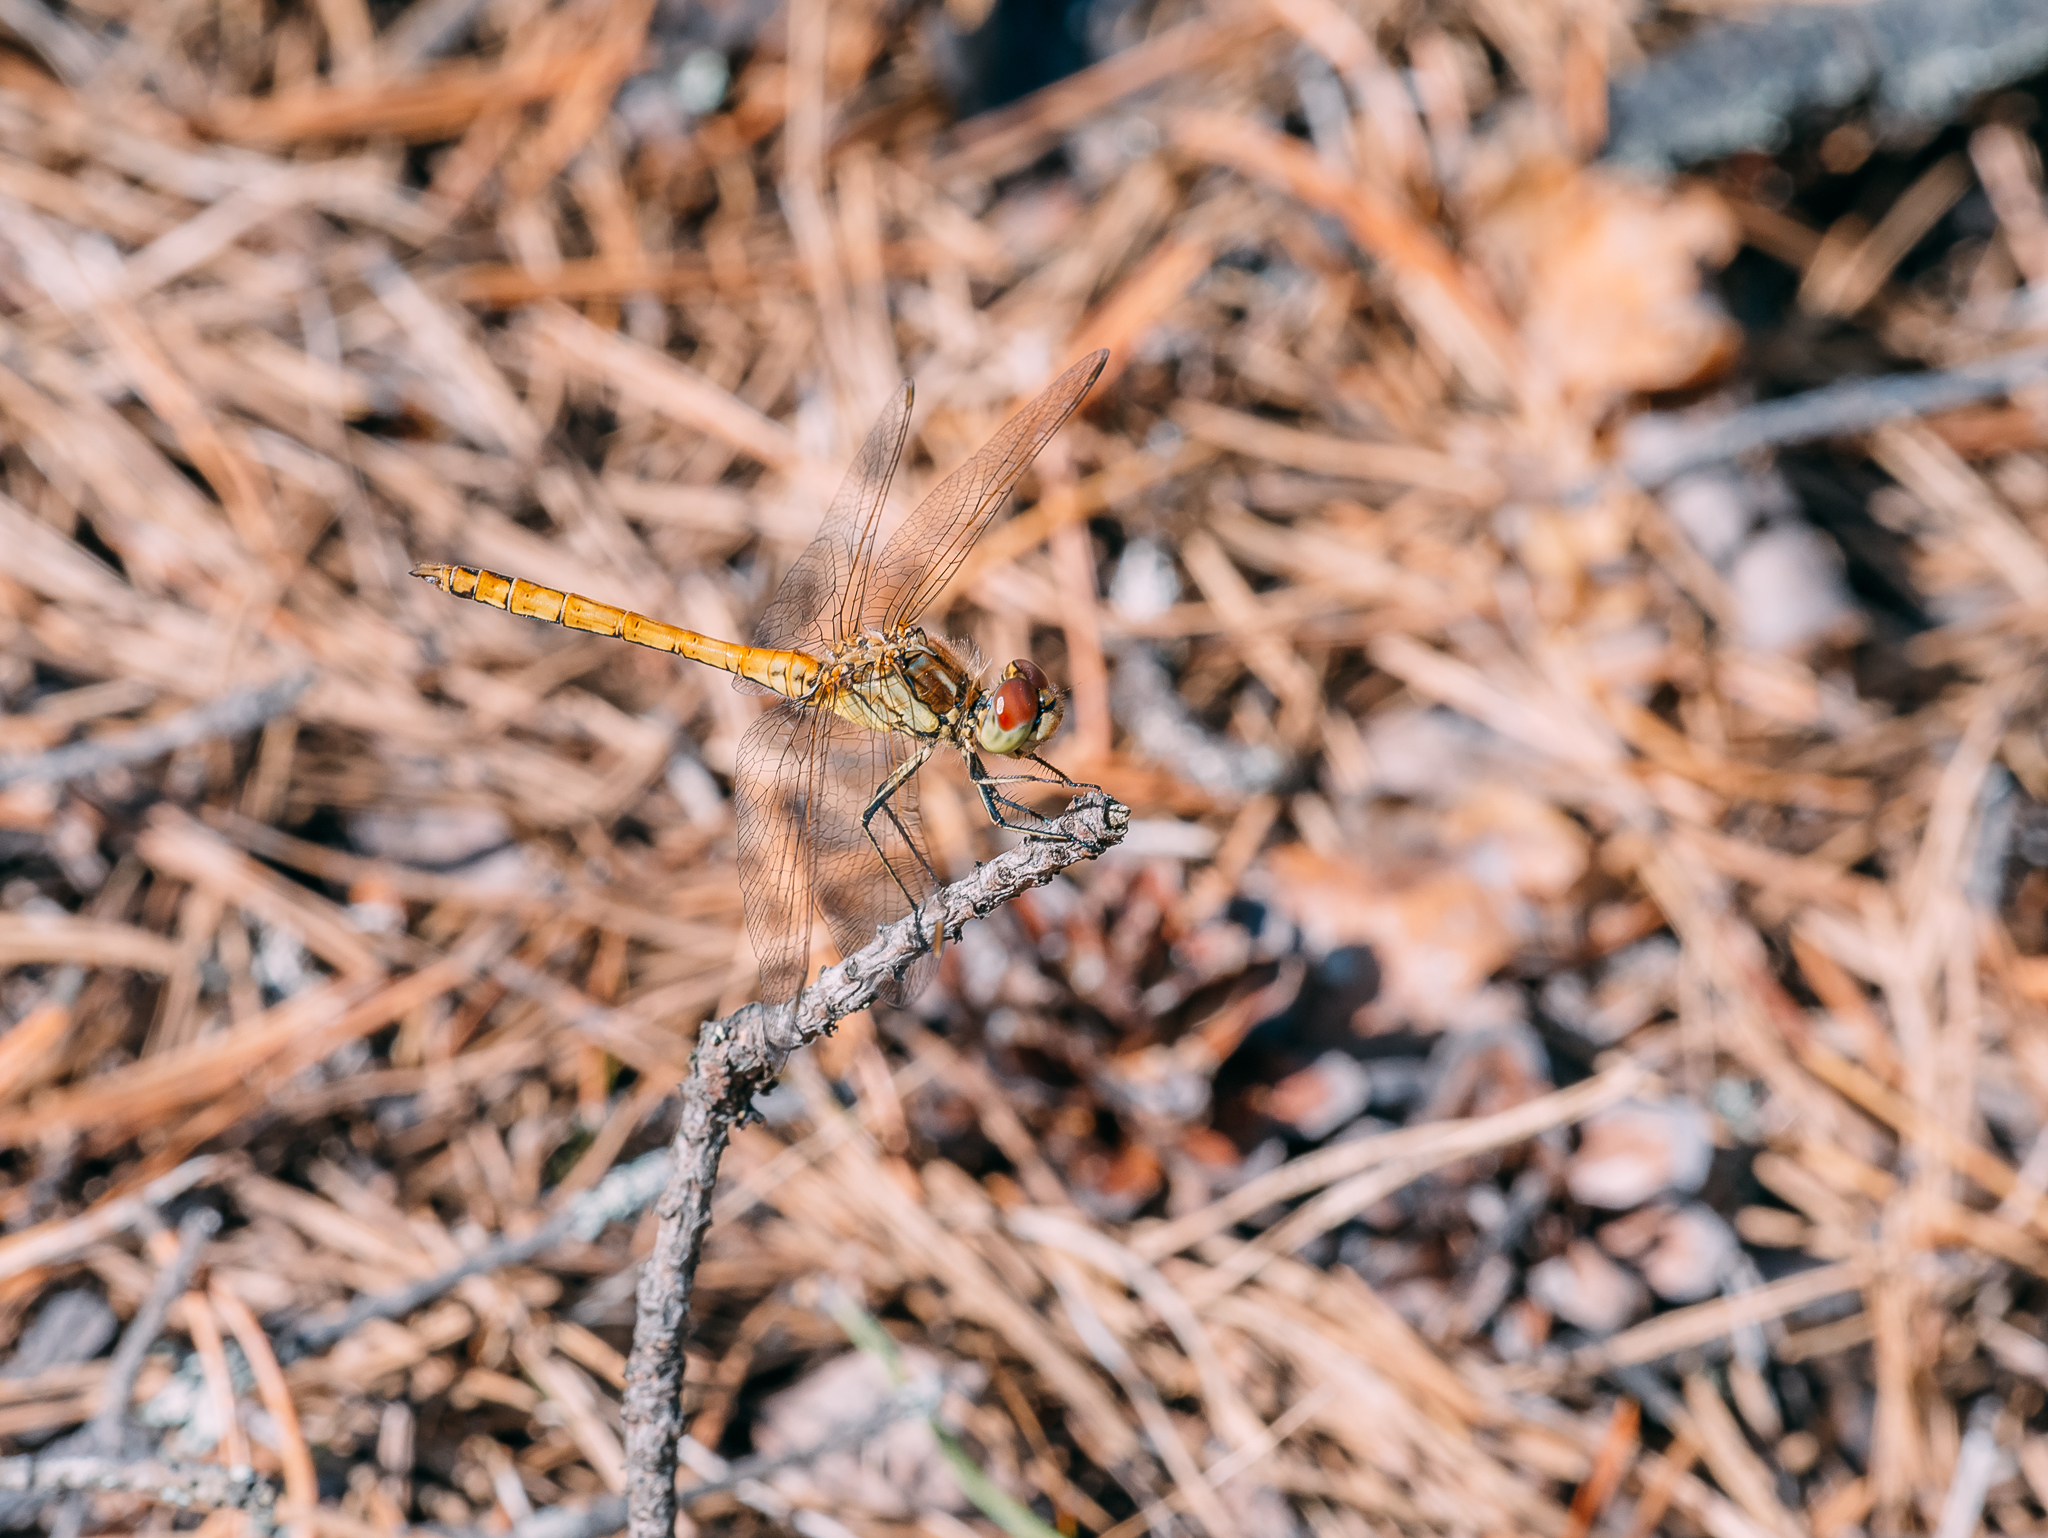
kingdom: Animalia
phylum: Arthropoda
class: Insecta
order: Odonata
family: Libellulidae
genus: Sympetrum
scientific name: Sympetrum vulgatum
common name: Vagrant darter
